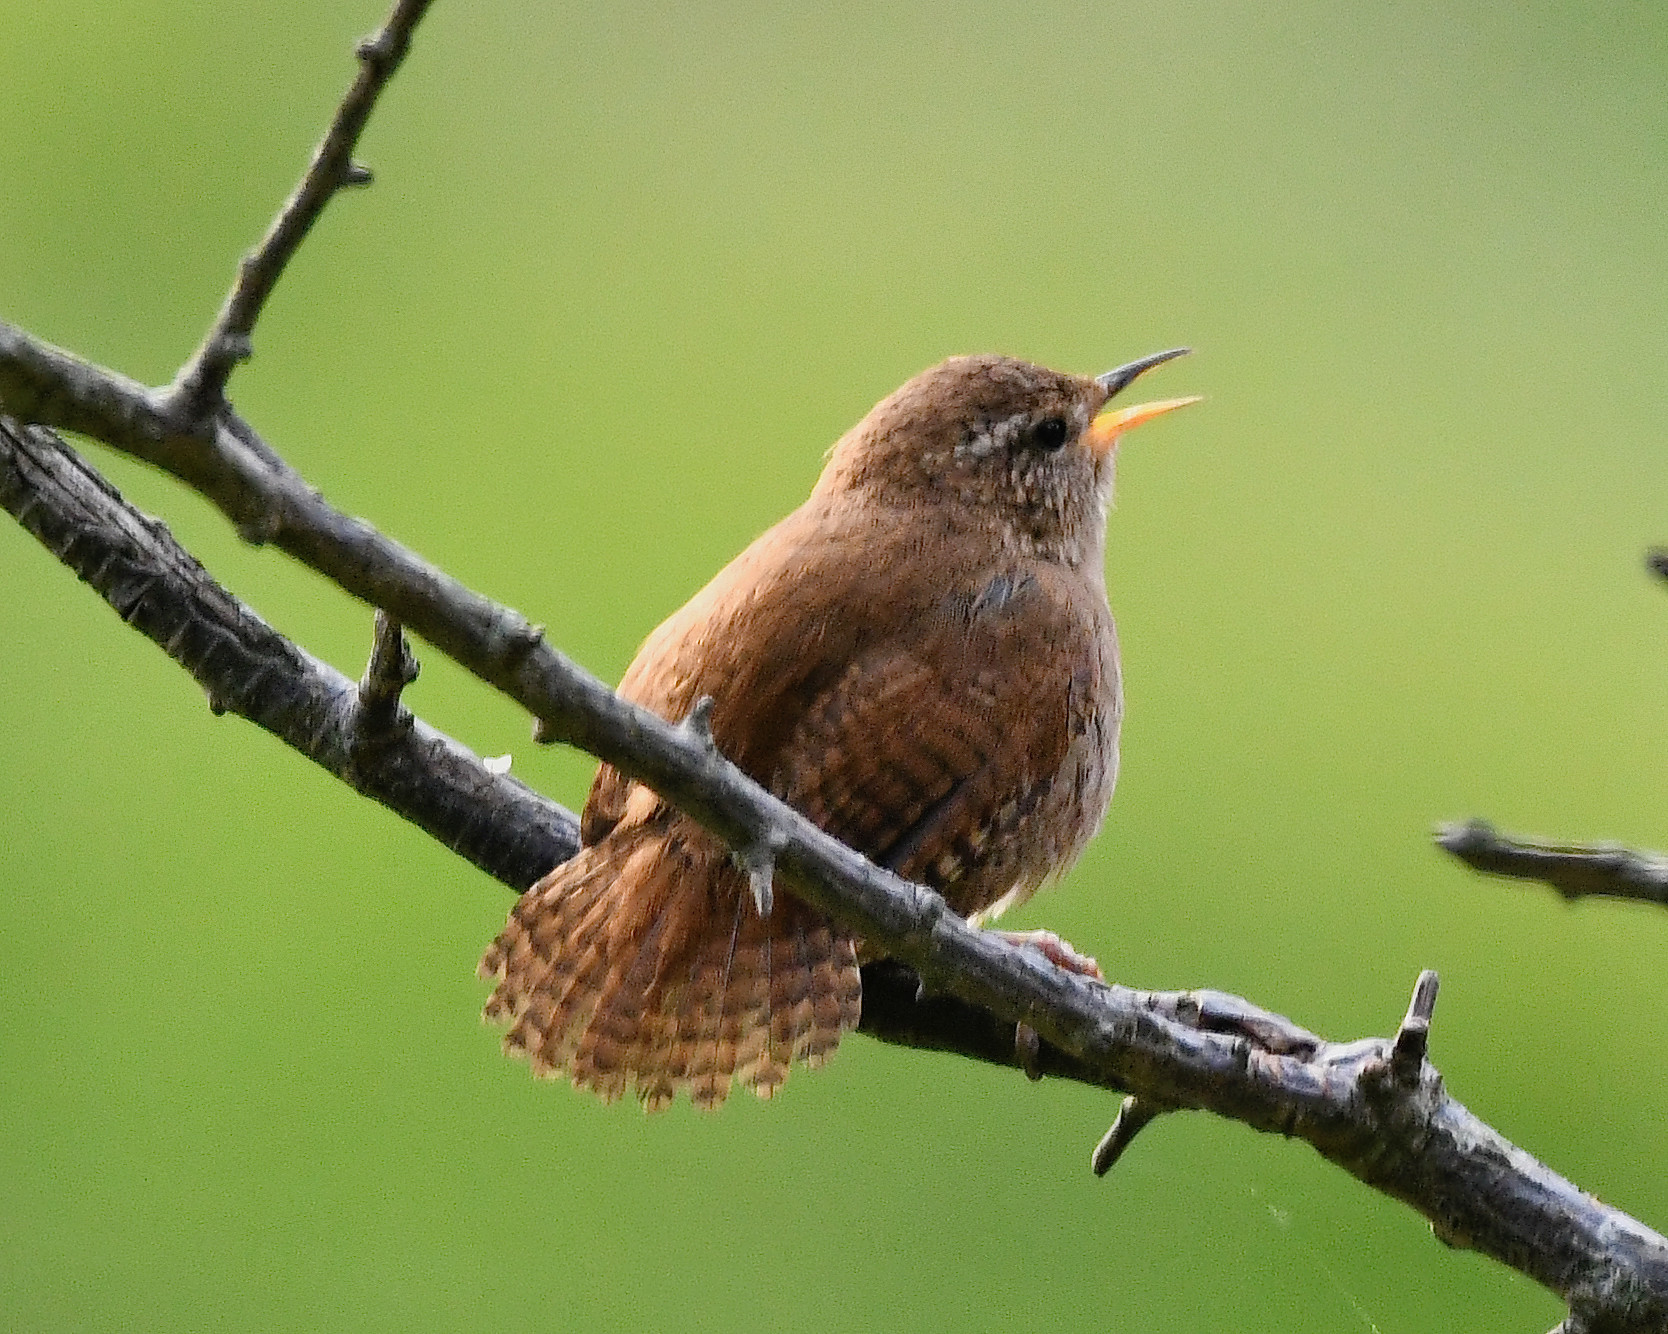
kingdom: Animalia
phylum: Chordata
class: Aves
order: Passeriformes
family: Troglodytidae
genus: Troglodytes
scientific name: Troglodytes troglodytes
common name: Eurasian wren
